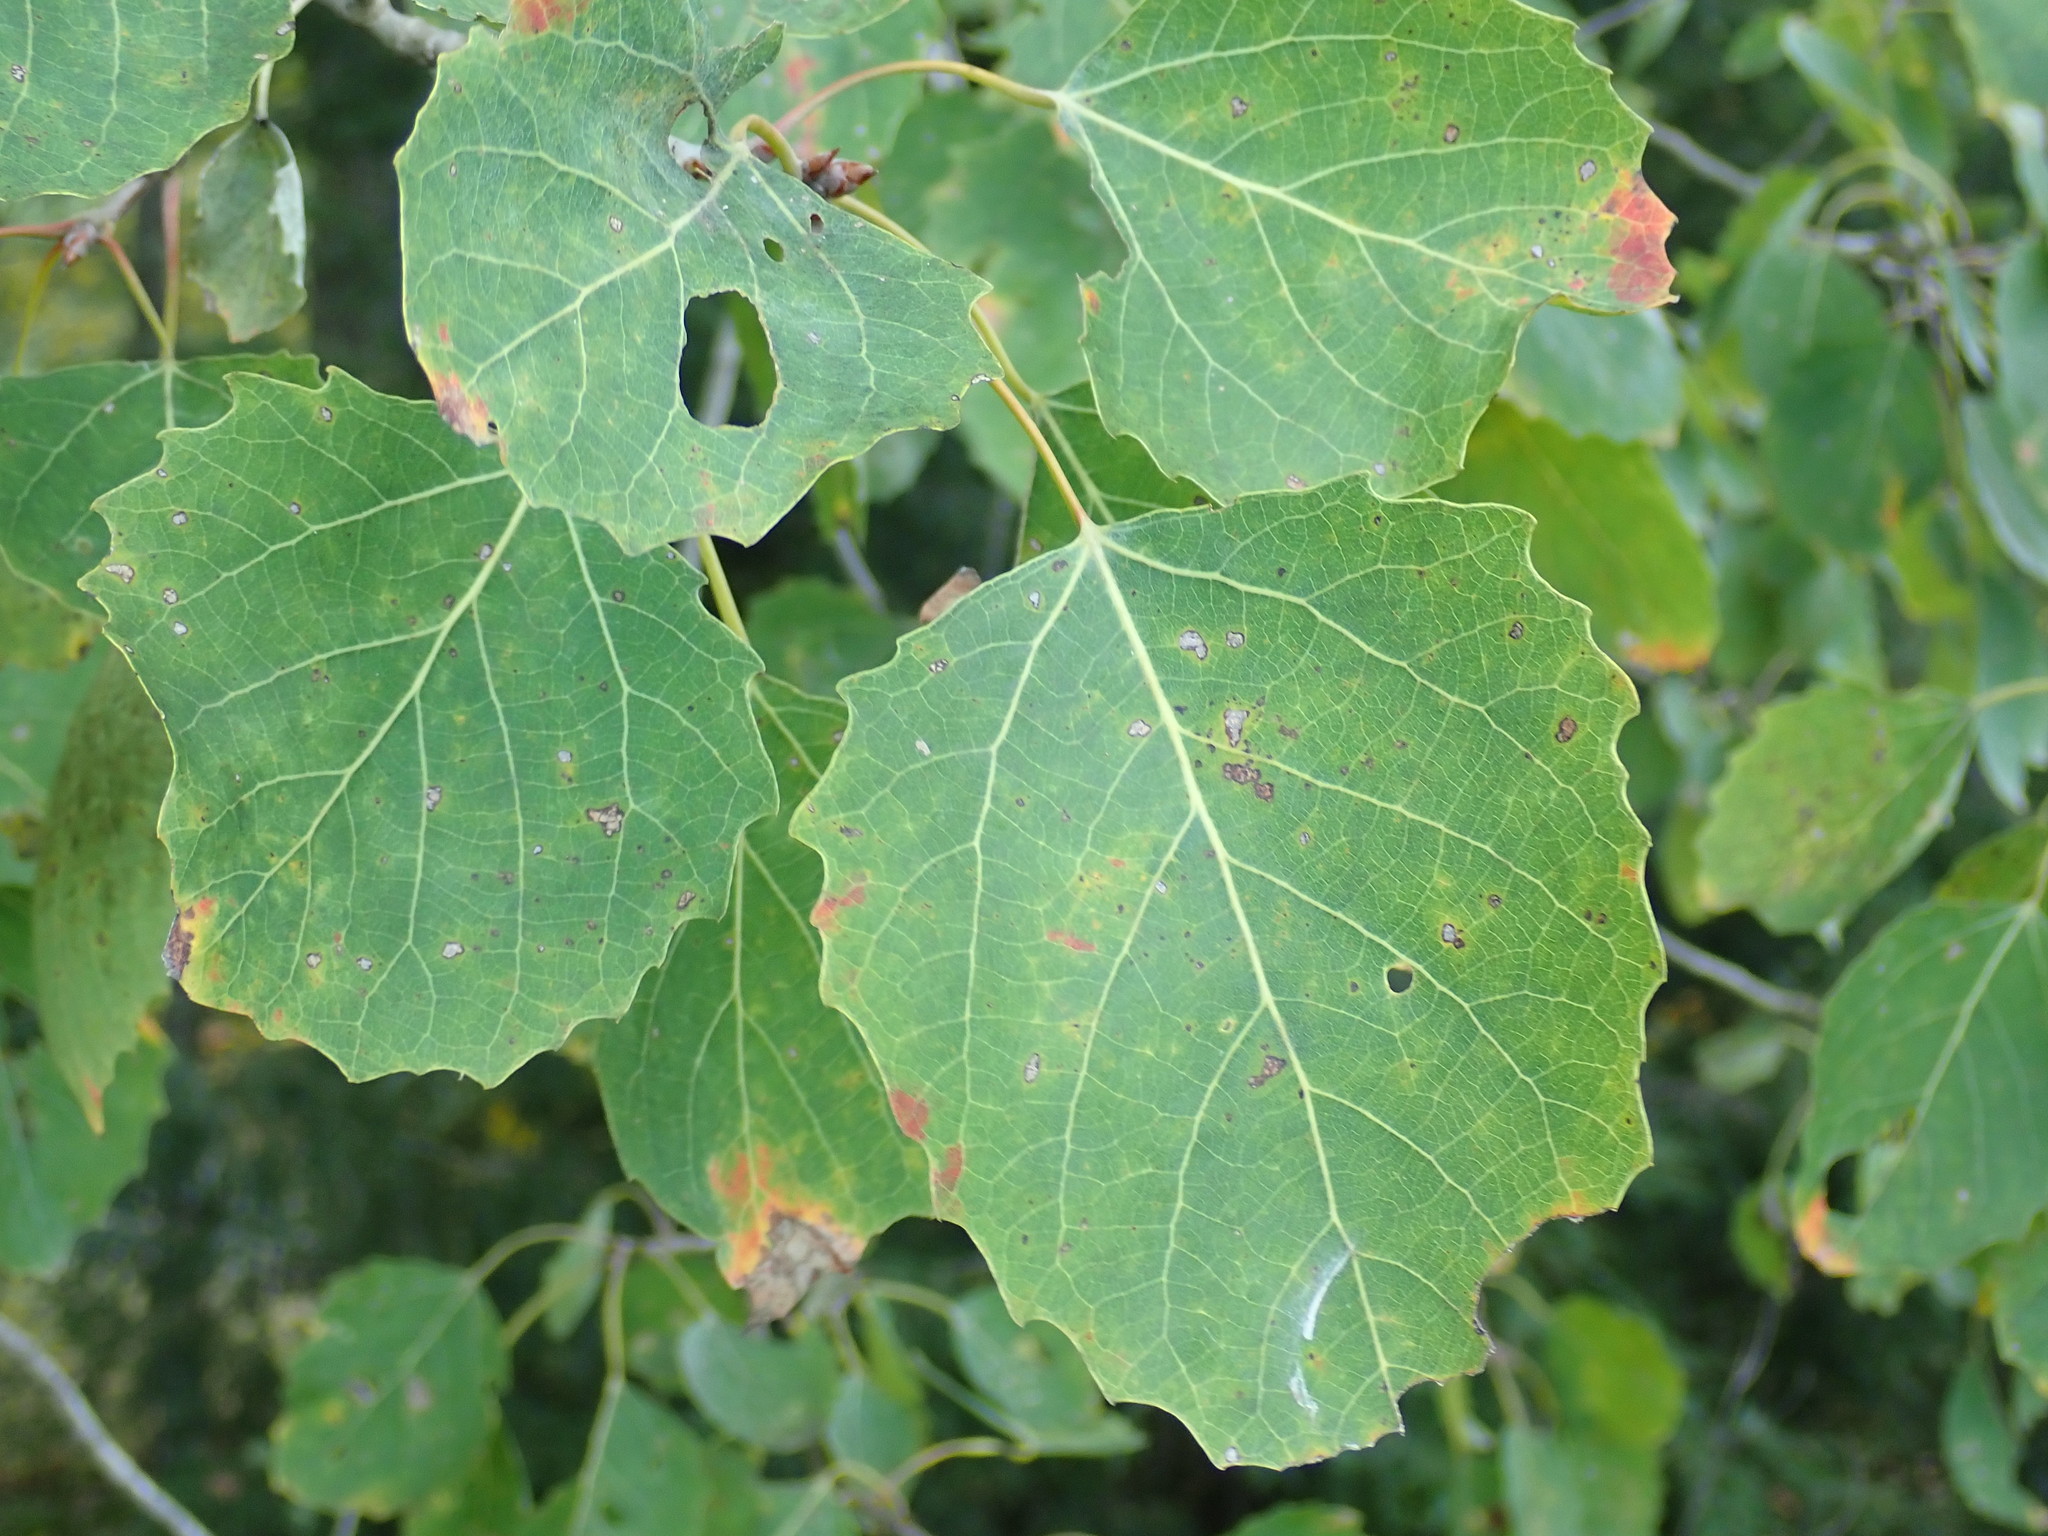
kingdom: Plantae
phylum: Tracheophyta
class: Magnoliopsida
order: Malpighiales
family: Salicaceae
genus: Populus
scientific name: Populus grandidentata
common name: Bigtooth aspen
